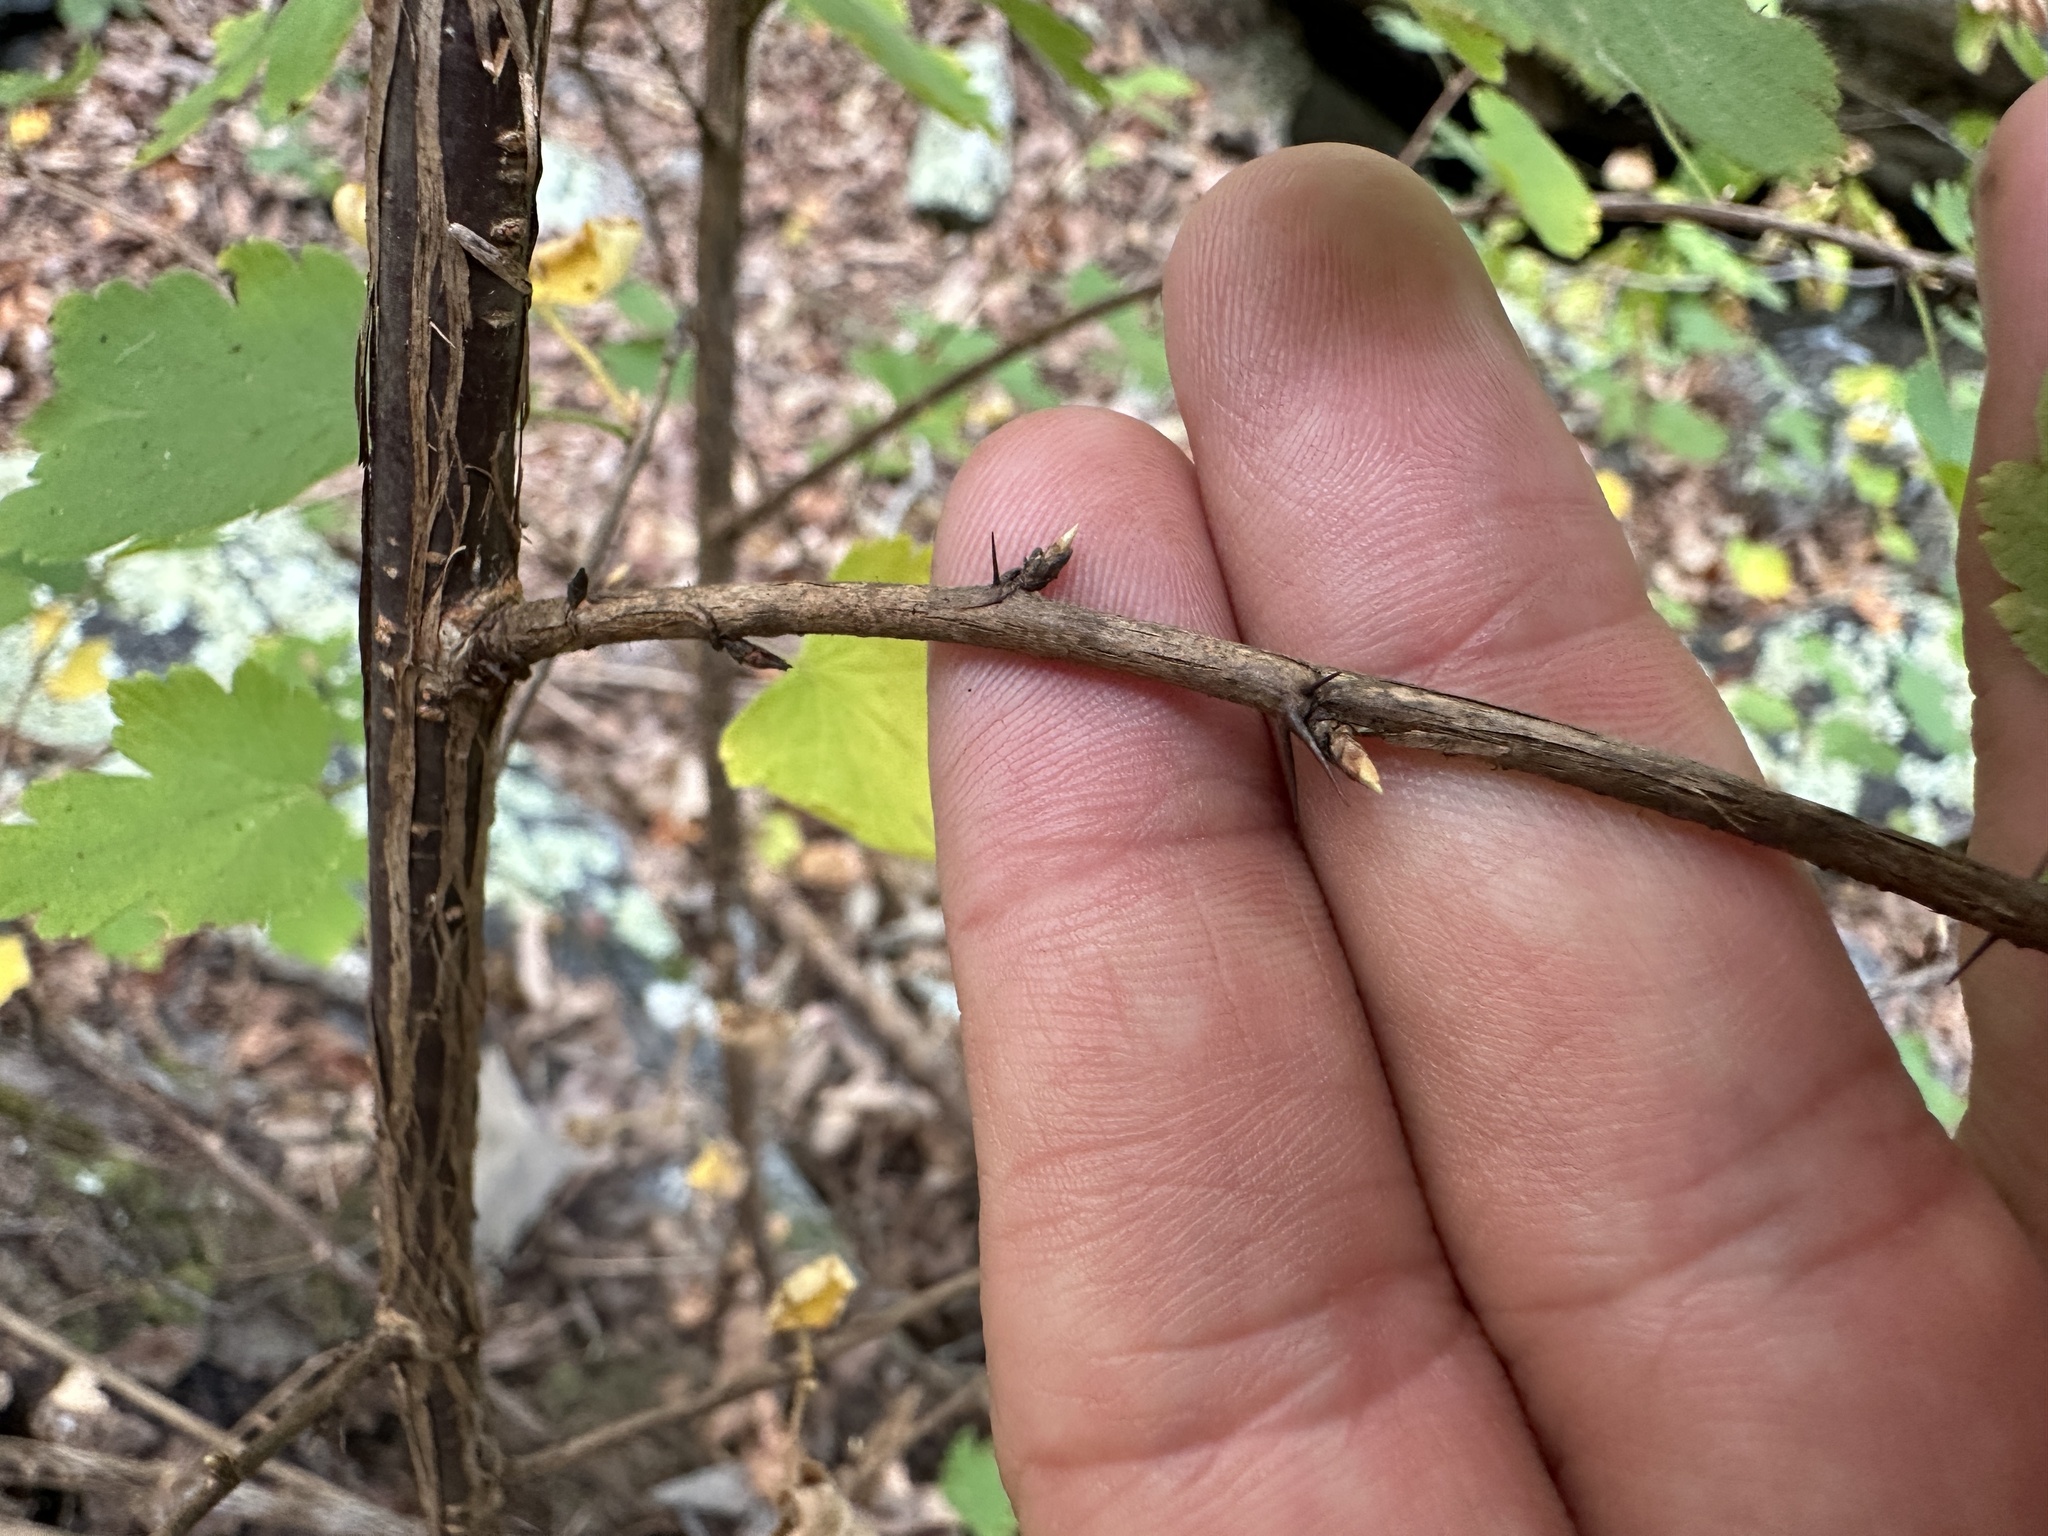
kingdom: Plantae
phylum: Tracheophyta
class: Magnoliopsida
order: Saxifragales
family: Grossulariaceae
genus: Ribes
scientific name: Ribes curvatum
